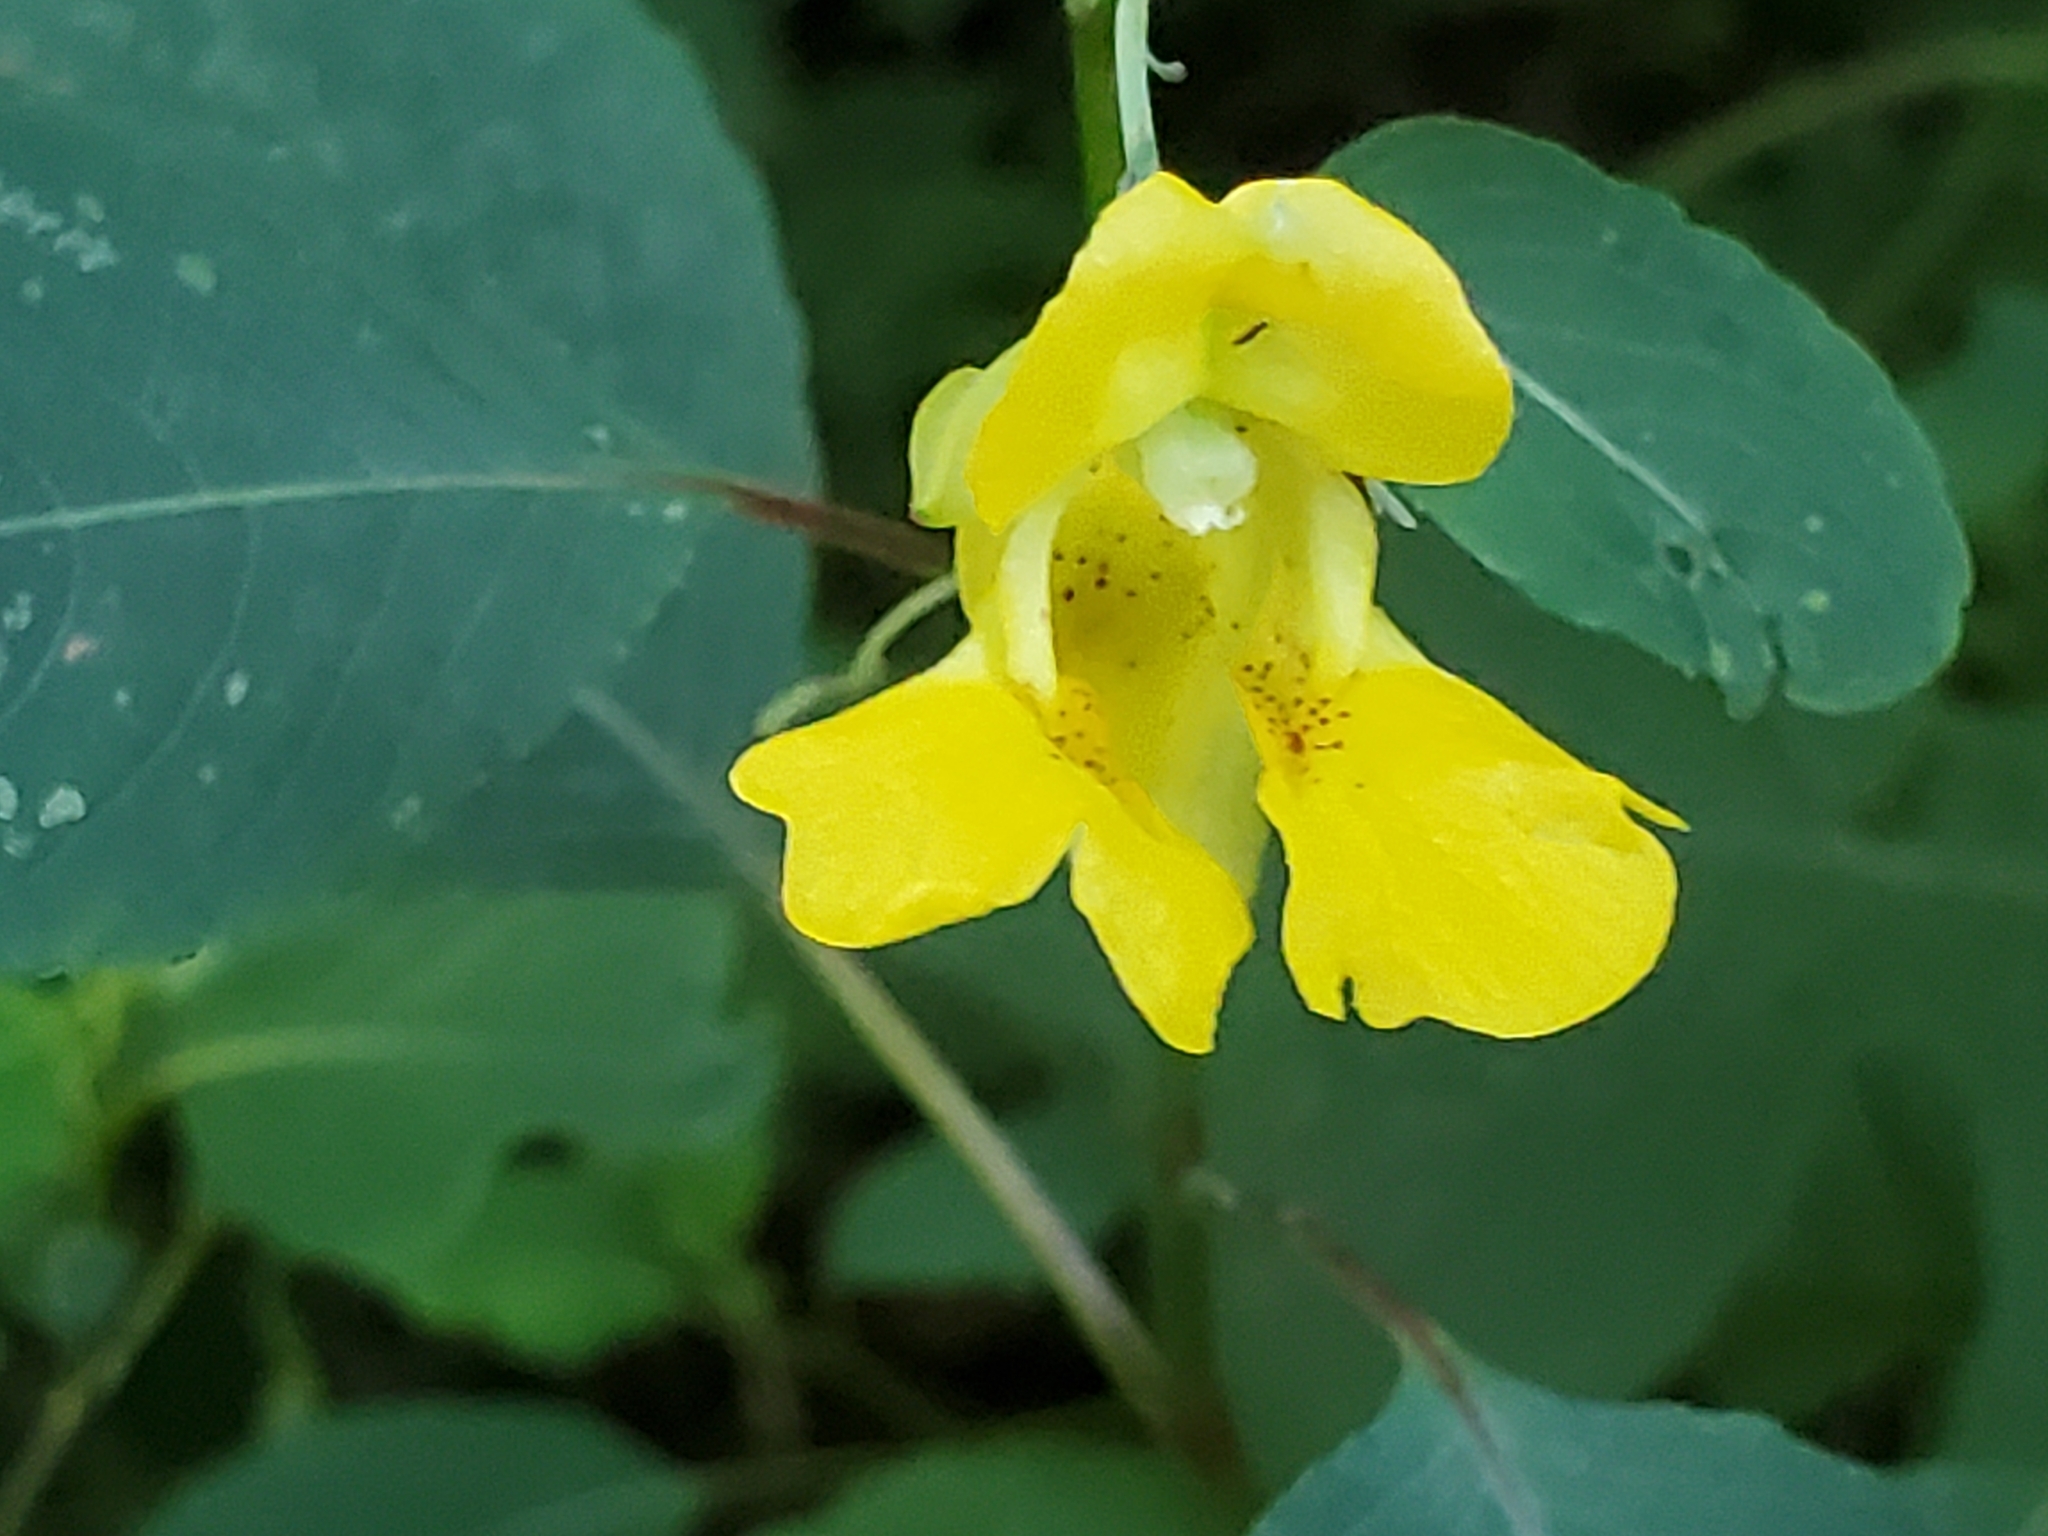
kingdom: Plantae
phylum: Tracheophyta
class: Magnoliopsida
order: Ericales
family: Balsaminaceae
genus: Impatiens
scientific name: Impatiens pallida
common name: Pale snapweed
